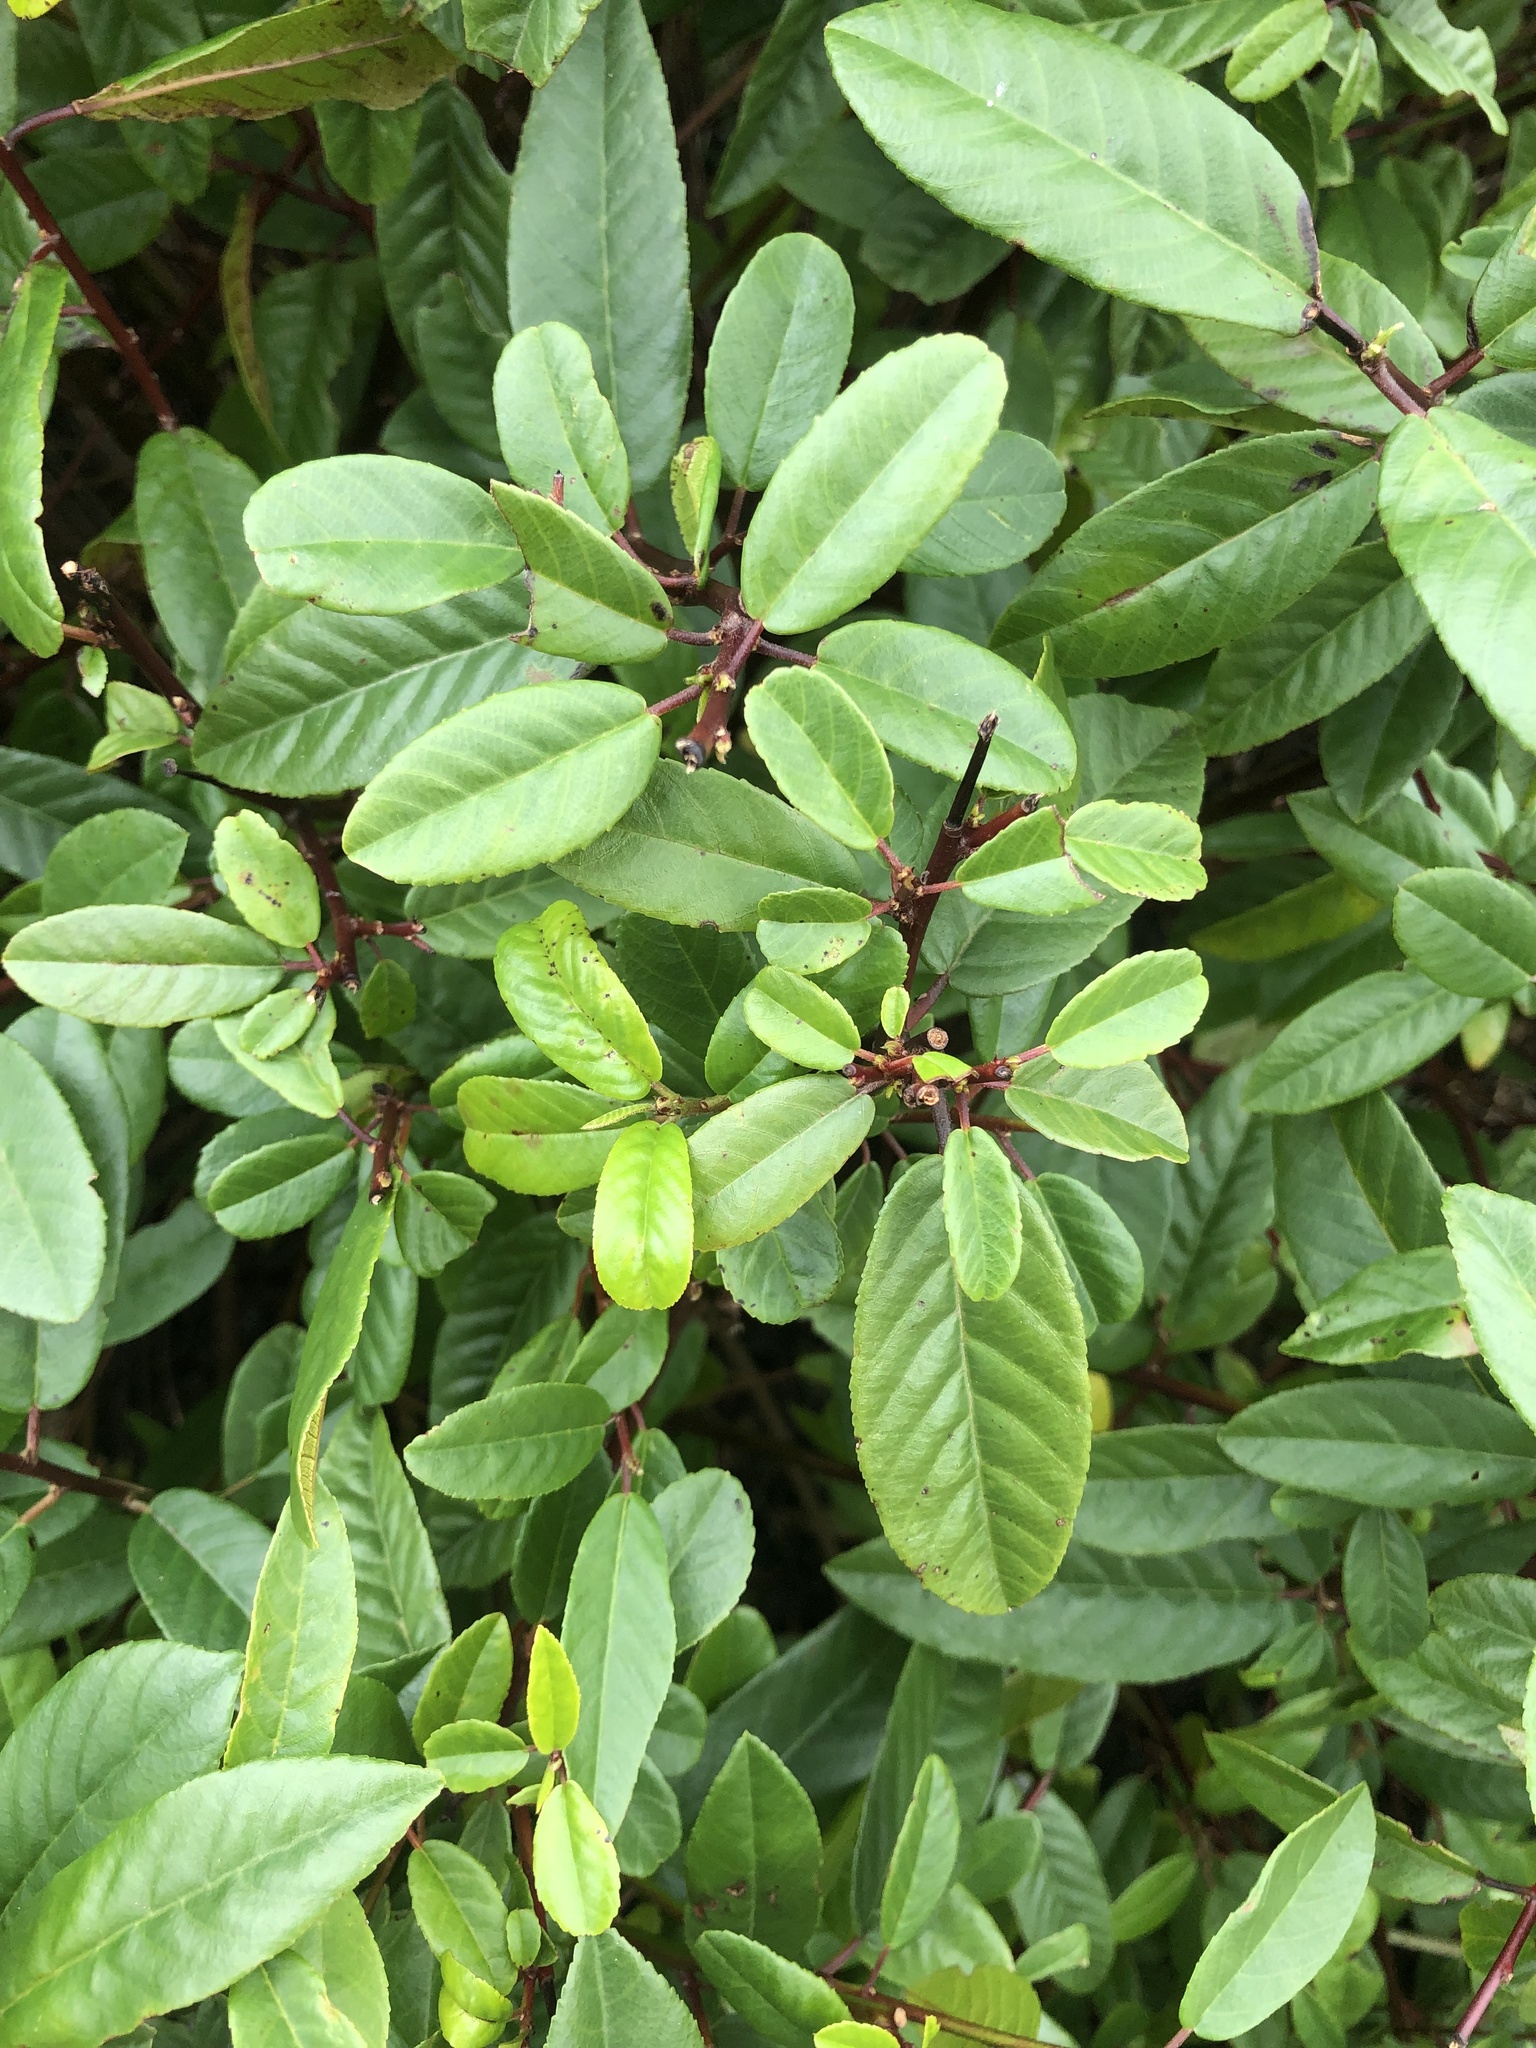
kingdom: Plantae
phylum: Tracheophyta
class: Magnoliopsida
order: Rosales
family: Rhamnaceae
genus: Frangula
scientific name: Frangula californica
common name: California buckthorn
